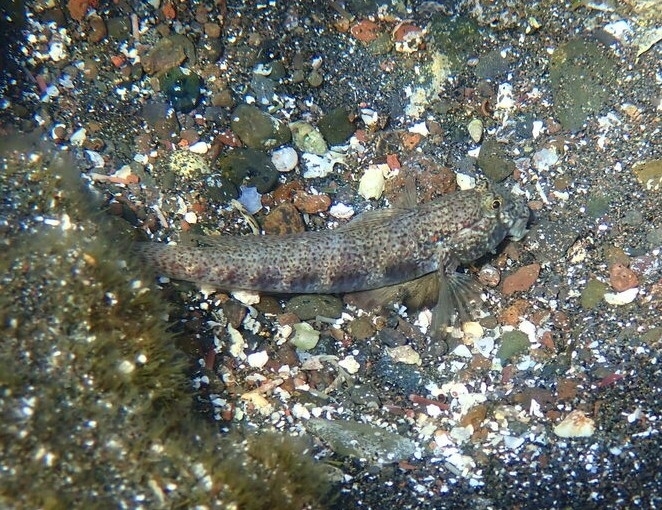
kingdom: Animalia
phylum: Chordata
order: Perciformes
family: Gobiidae
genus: Gnatholepis
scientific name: Gnatholepis thompsoni
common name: Goldspot goby
